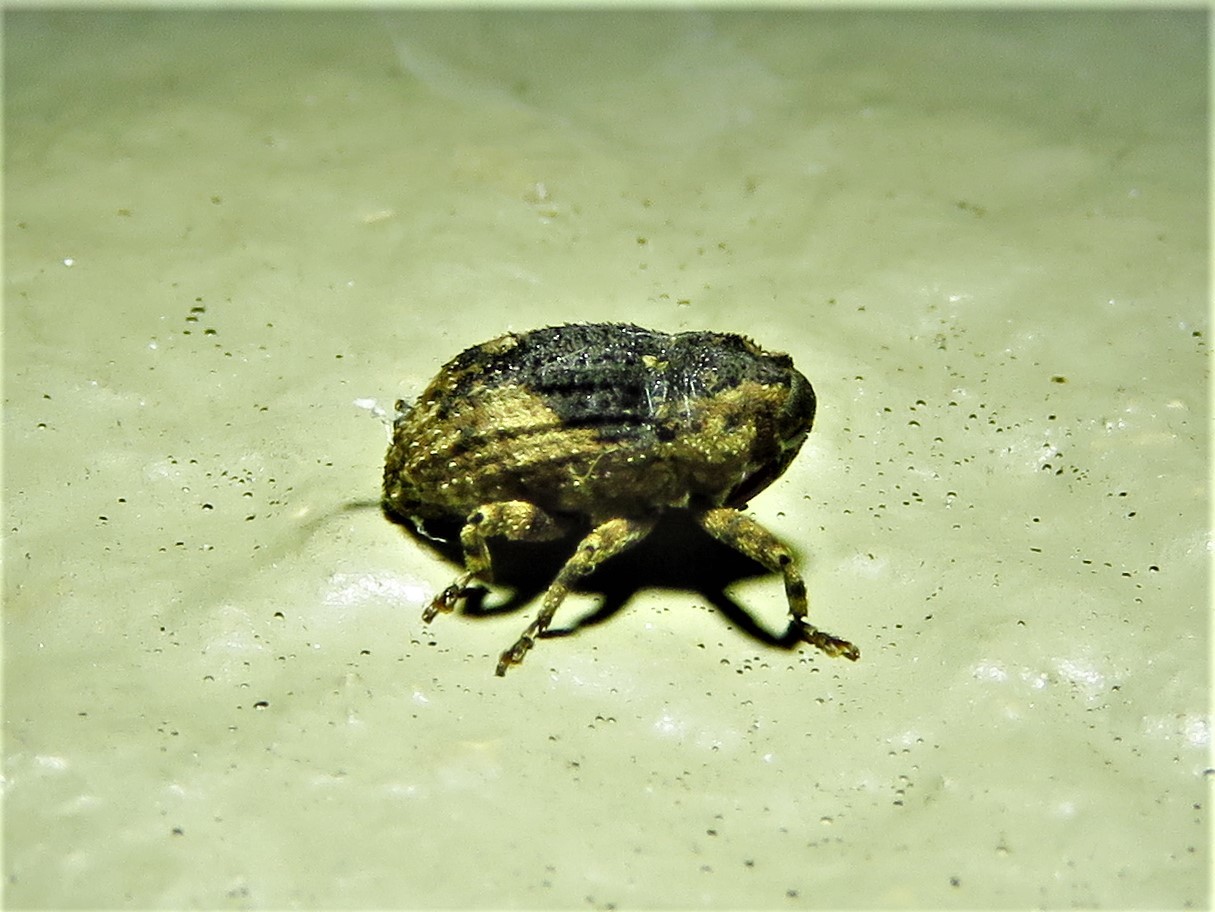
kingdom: Animalia
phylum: Arthropoda
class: Insecta
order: Coleoptera
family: Curculionidae
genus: Cophes
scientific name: Cophes fallax
